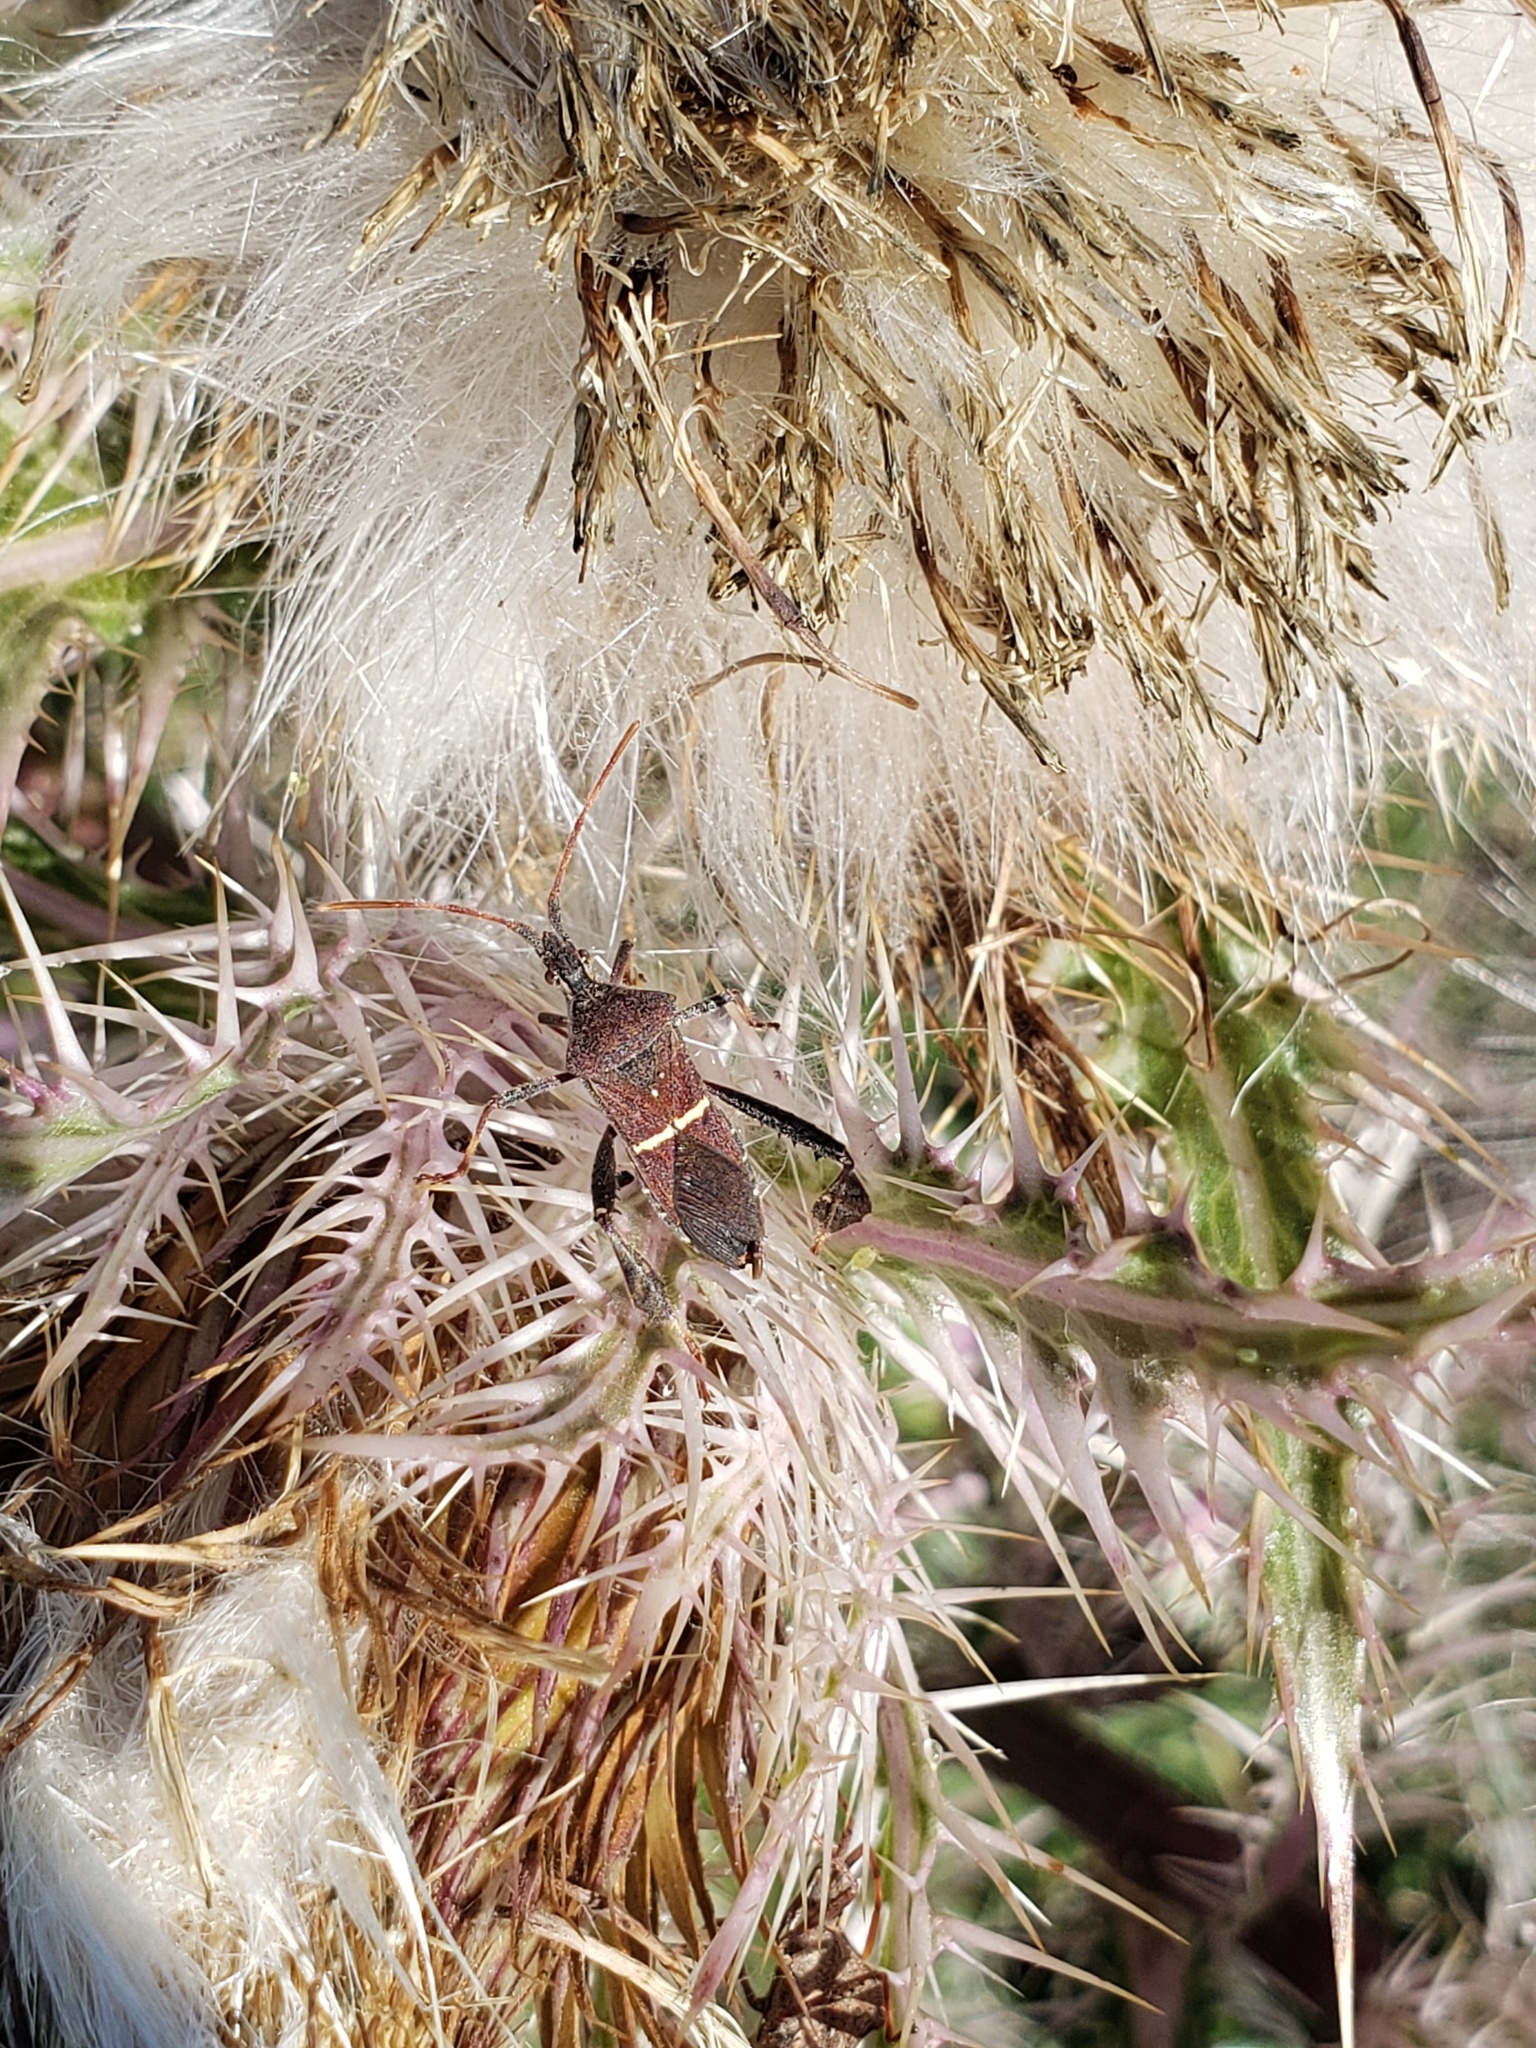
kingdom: Animalia
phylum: Arthropoda
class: Insecta
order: Hemiptera
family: Coreidae
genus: Leptoglossus
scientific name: Leptoglossus phyllopus
